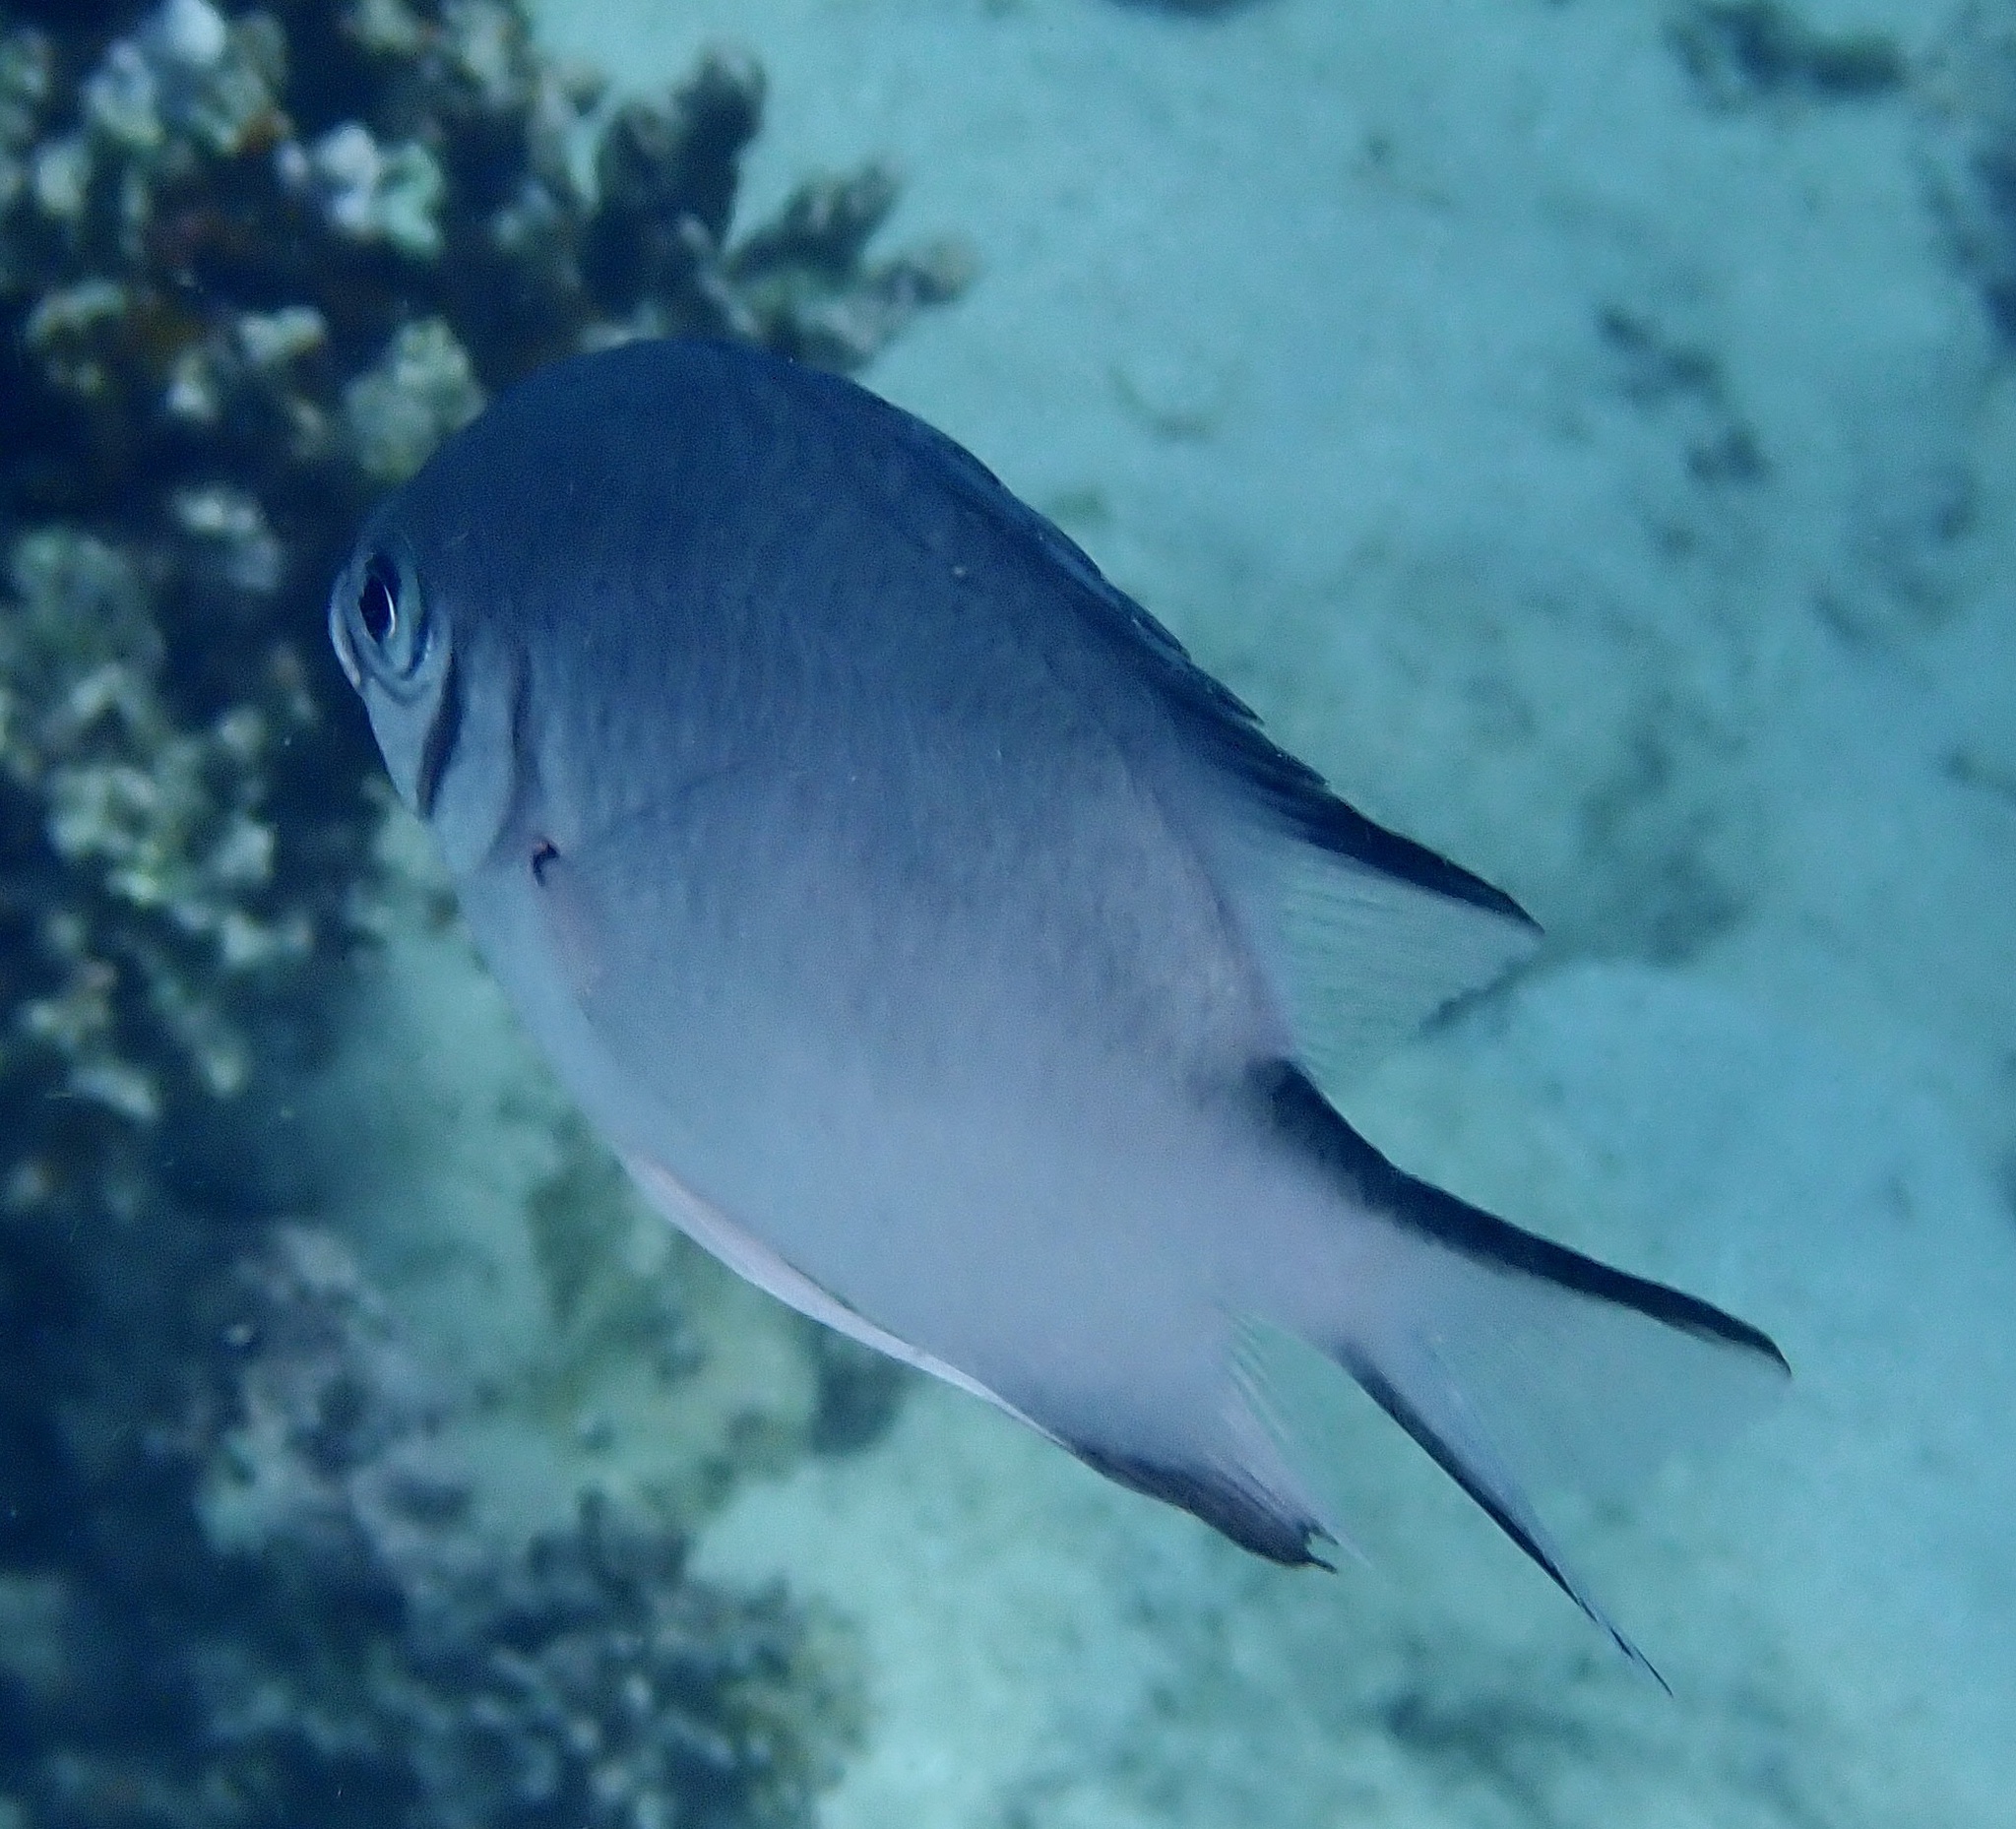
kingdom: Animalia
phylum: Chordata
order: Perciformes
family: Pomacentridae
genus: Amblyglyphidodon
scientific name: Amblyglyphidodon indicus
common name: Maldives damselfish
